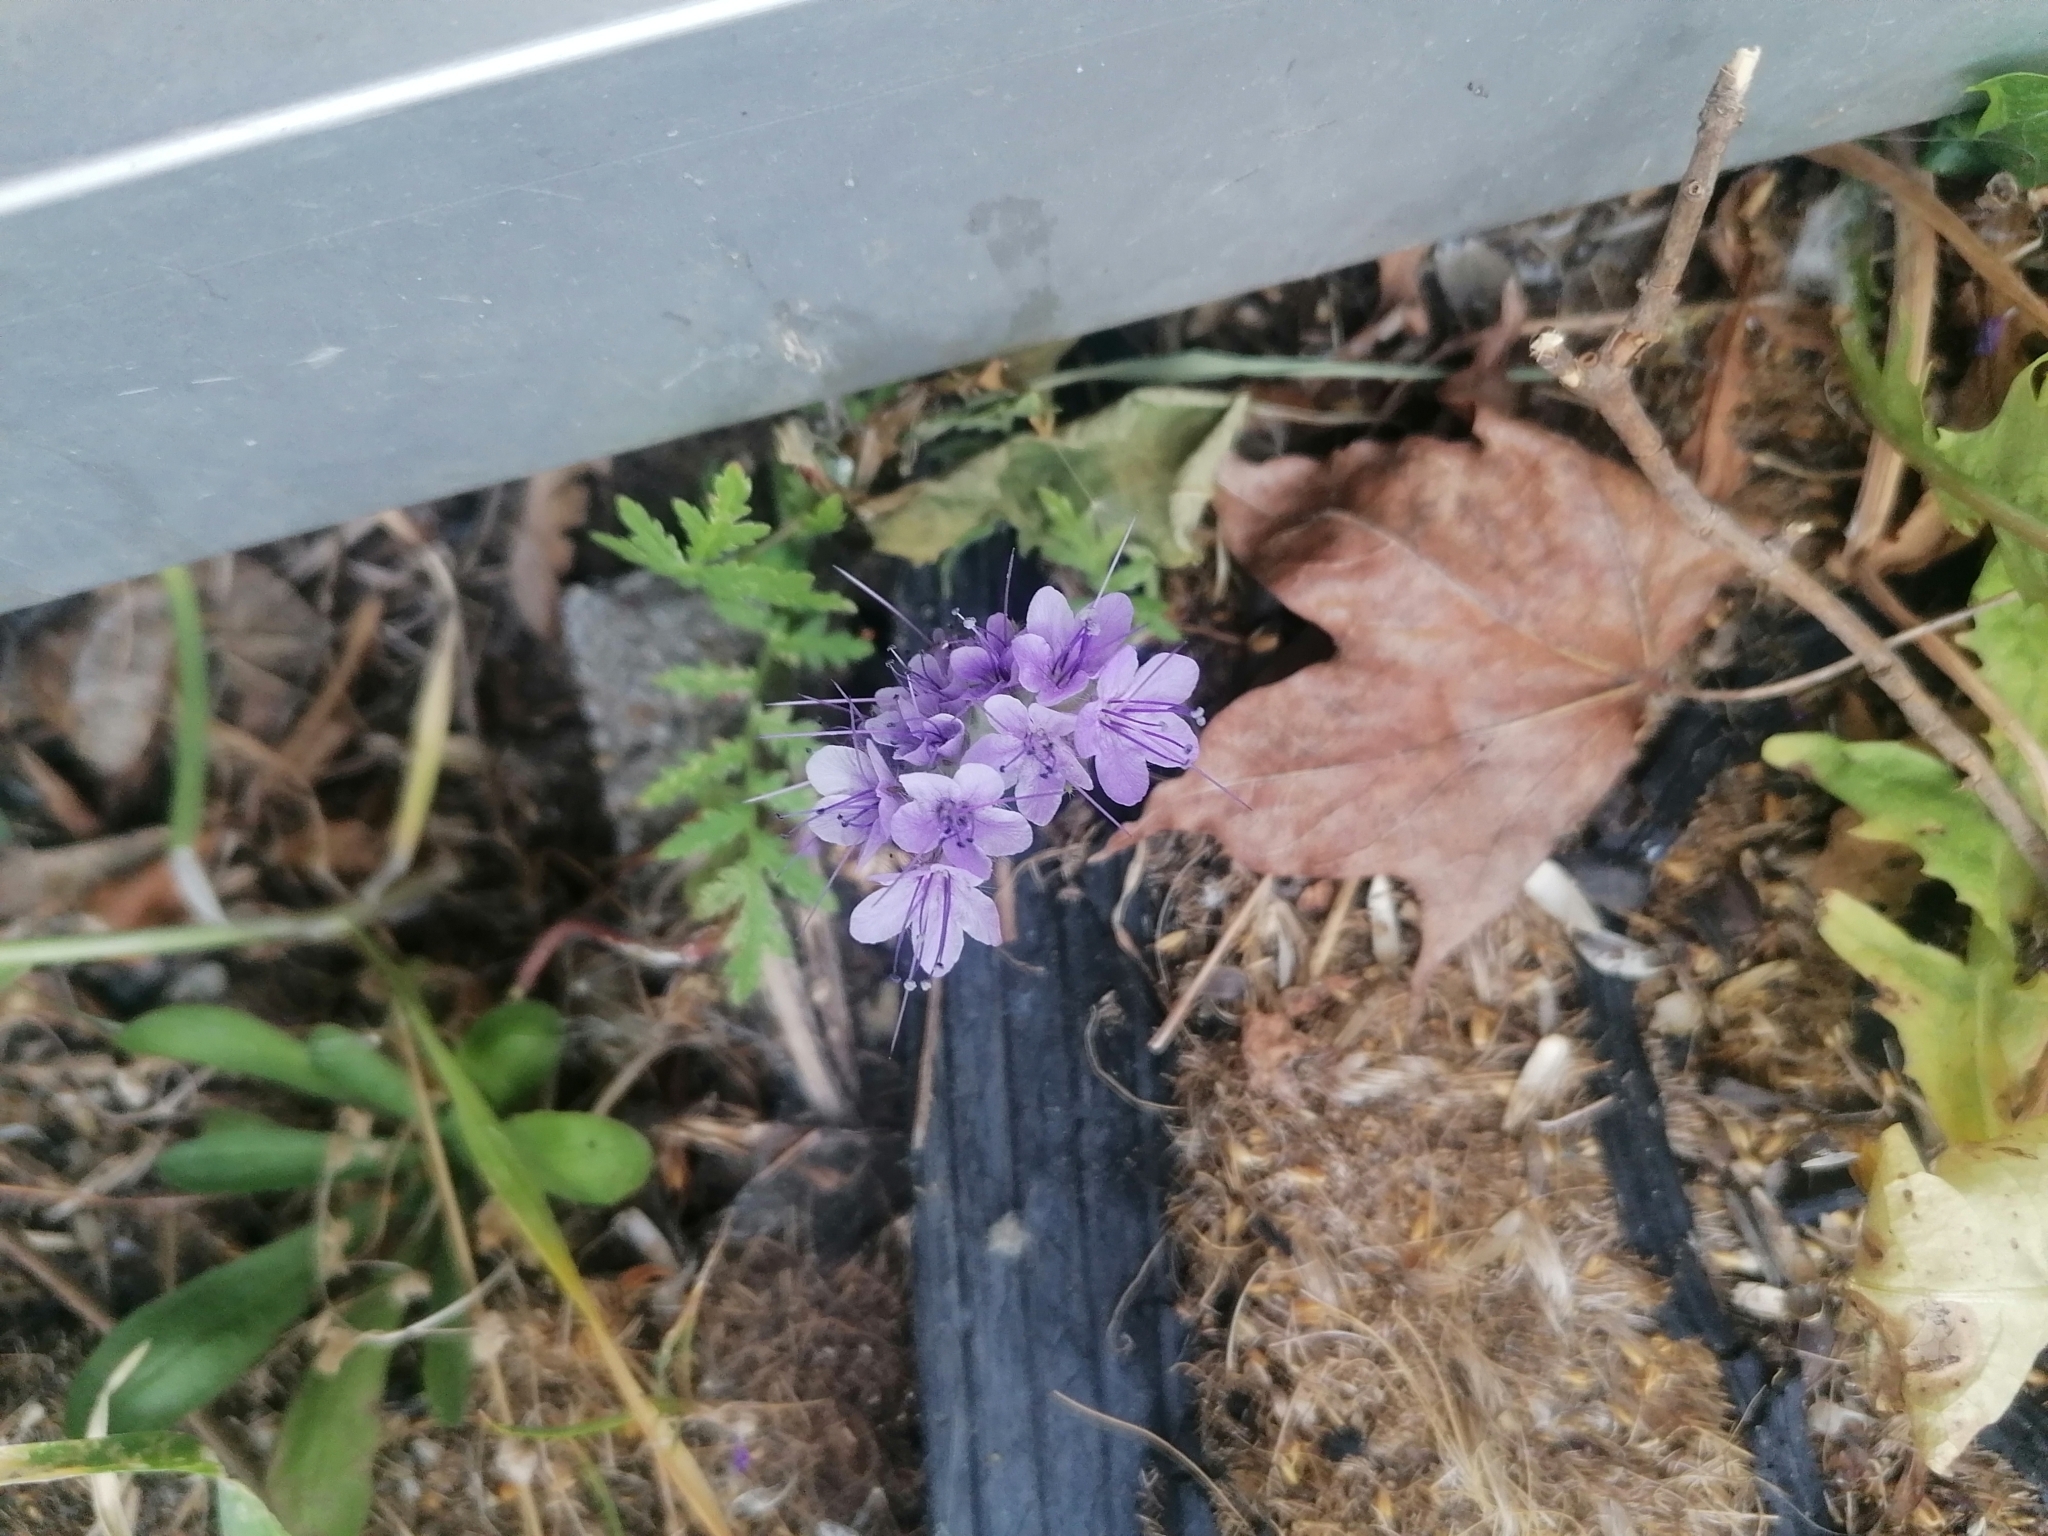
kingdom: Plantae
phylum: Tracheophyta
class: Magnoliopsida
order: Boraginales
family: Hydrophyllaceae
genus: Phacelia
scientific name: Phacelia tanacetifolia
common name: Phacelia
